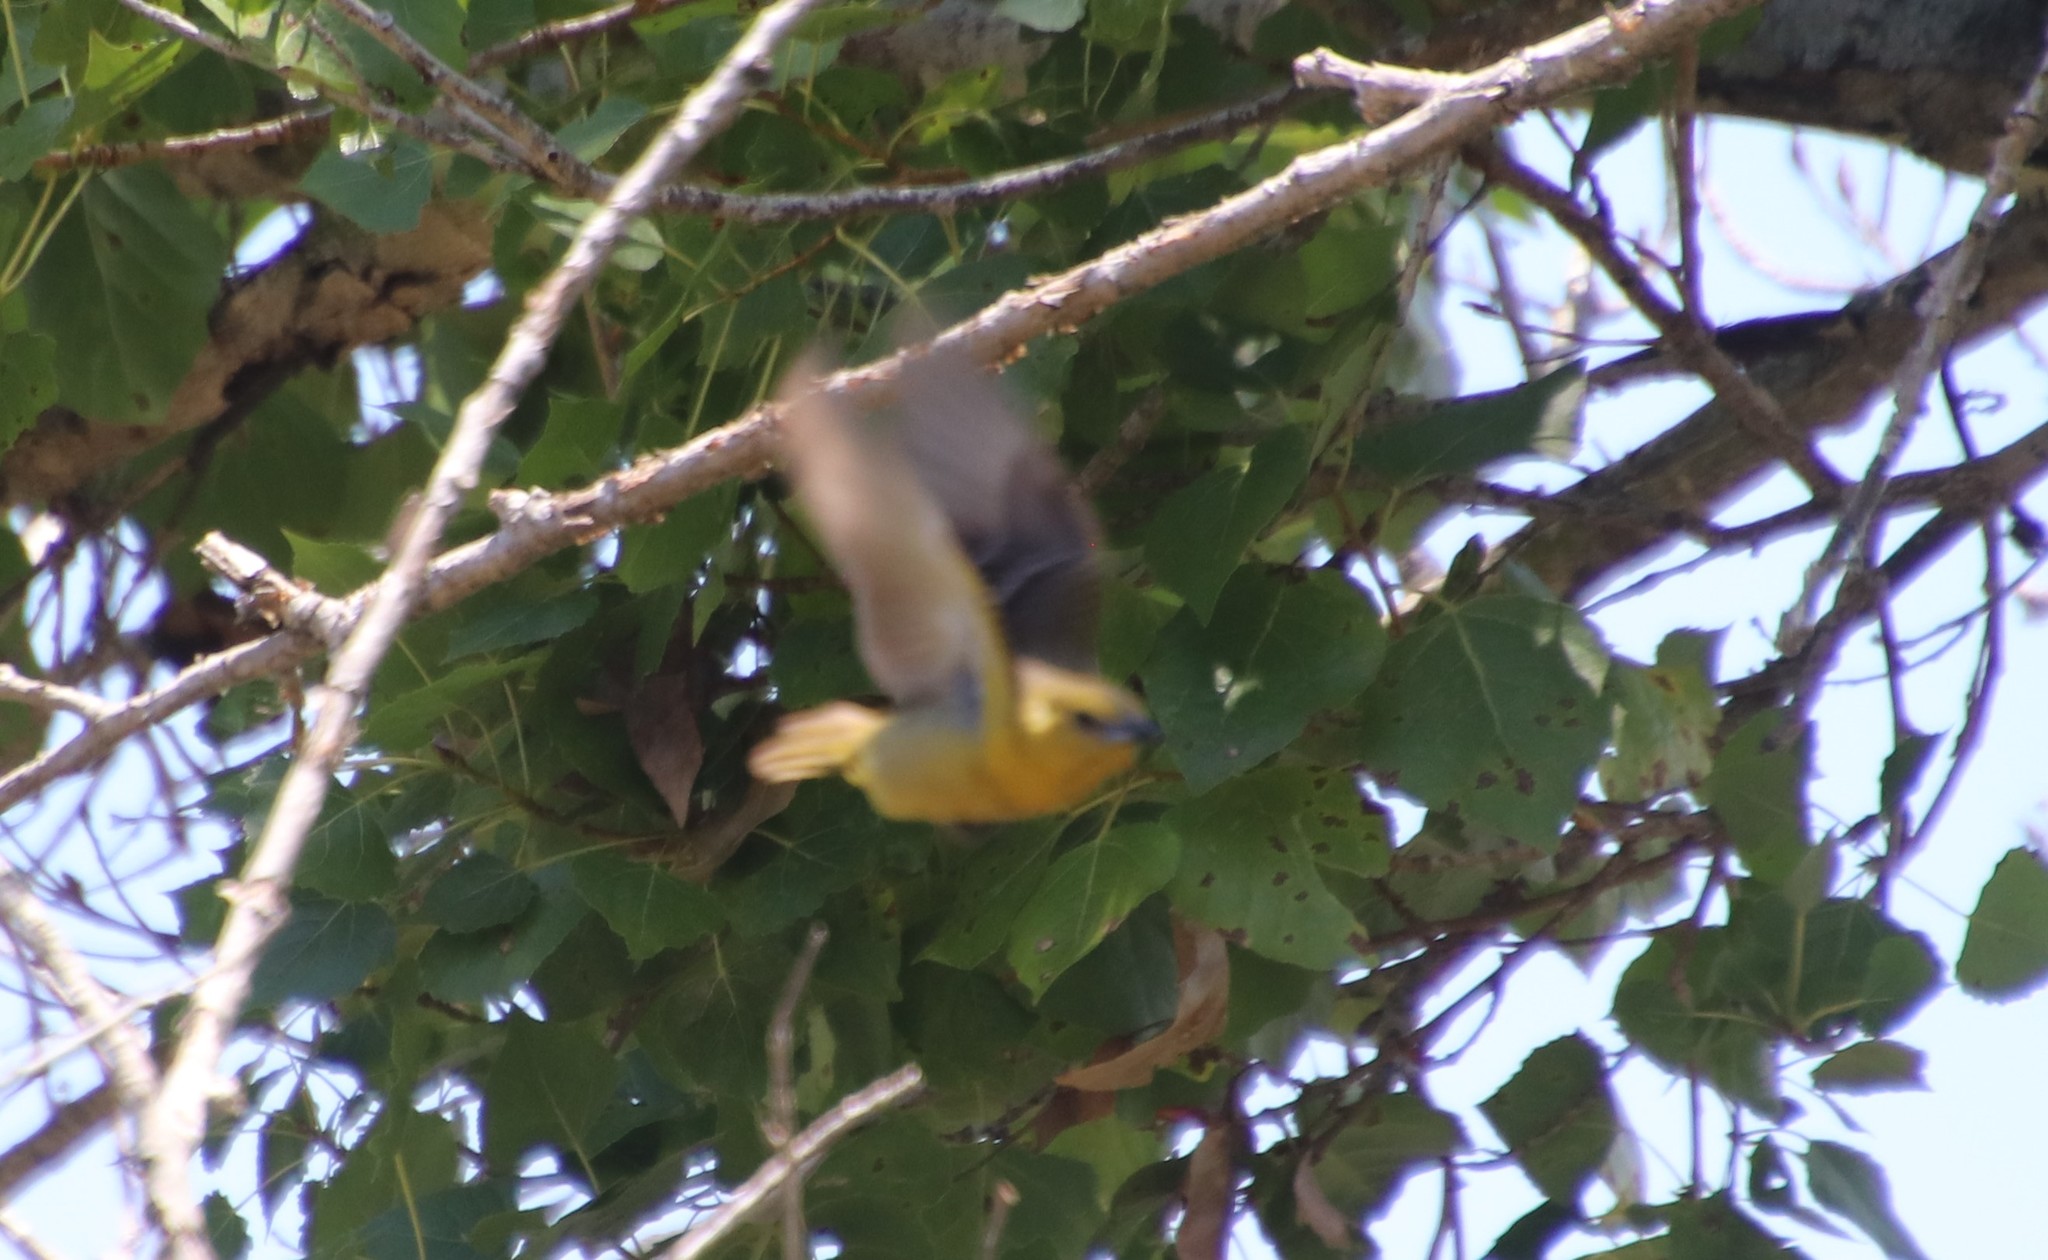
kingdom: Animalia
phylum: Chordata
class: Aves
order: Passeriformes
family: Icteridae
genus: Icterus
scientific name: Icterus cucullatus
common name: Hooded oriole
